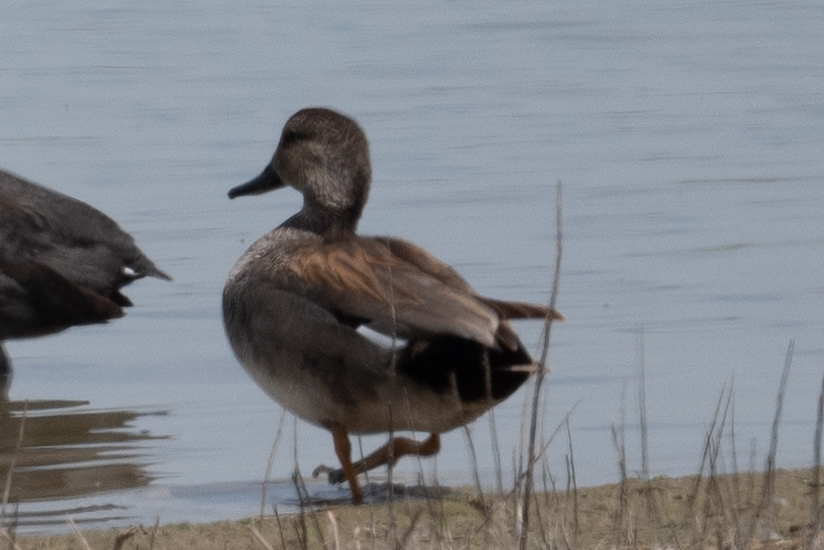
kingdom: Animalia
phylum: Chordata
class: Aves
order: Anseriformes
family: Anatidae
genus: Mareca
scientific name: Mareca strepera
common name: Gadwall
